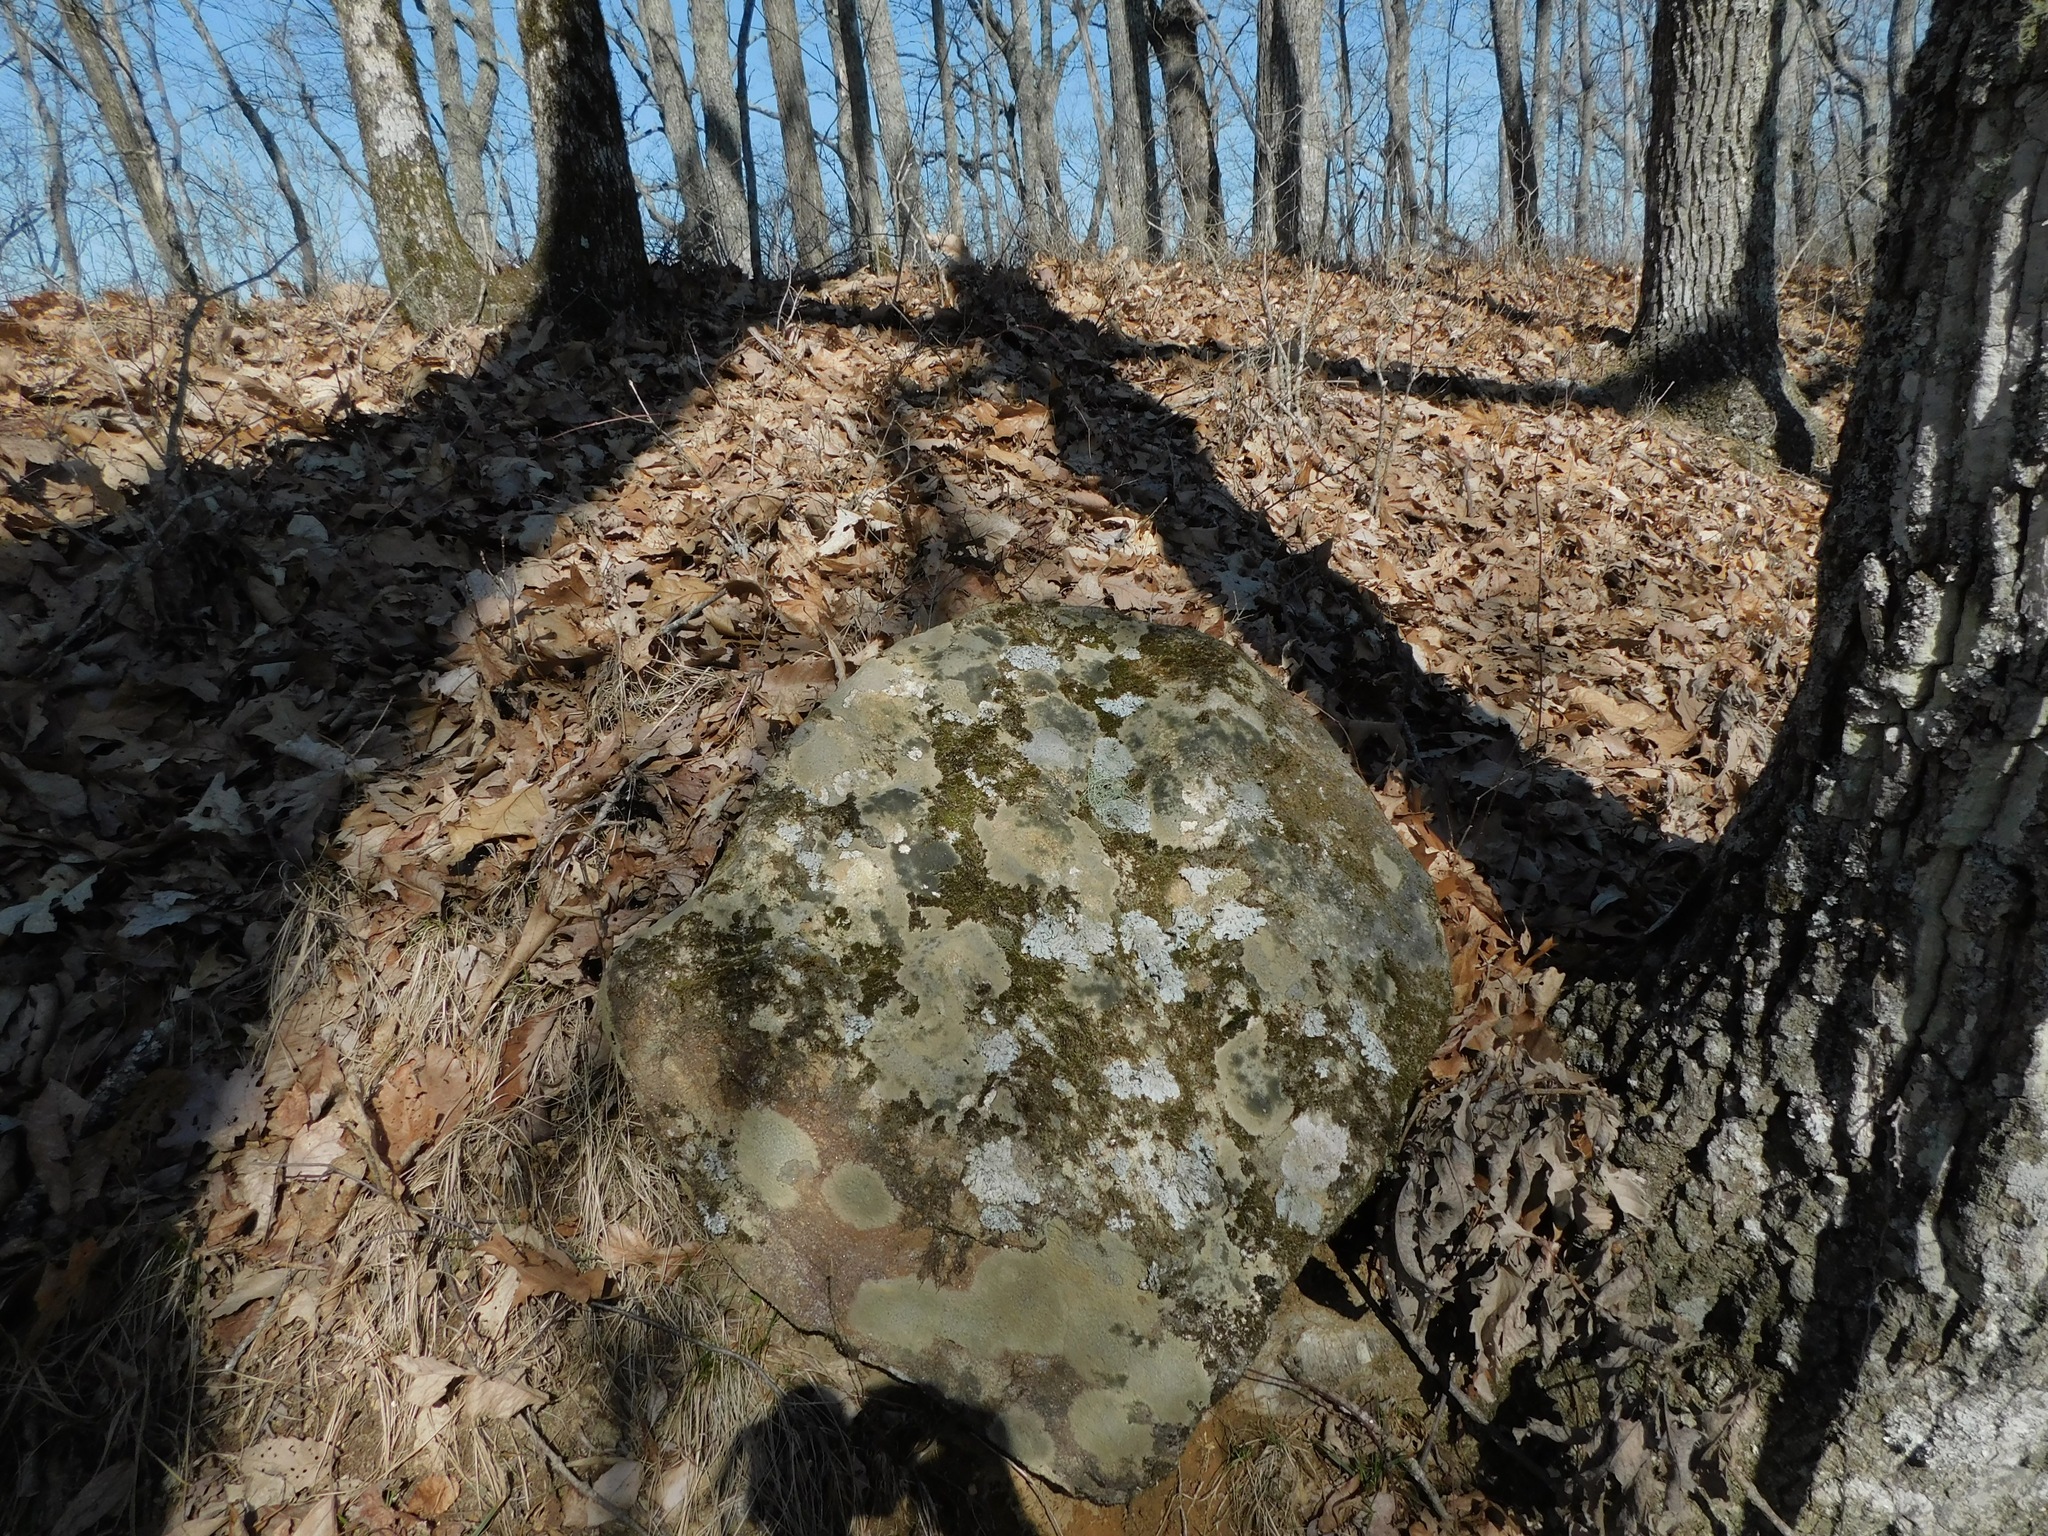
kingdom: Fungi
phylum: Ascomycota
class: Eurotiomycetes
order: Verrucariales
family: Verrucariaceae
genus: Verrucaria
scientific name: Verrucaria nigrescens
